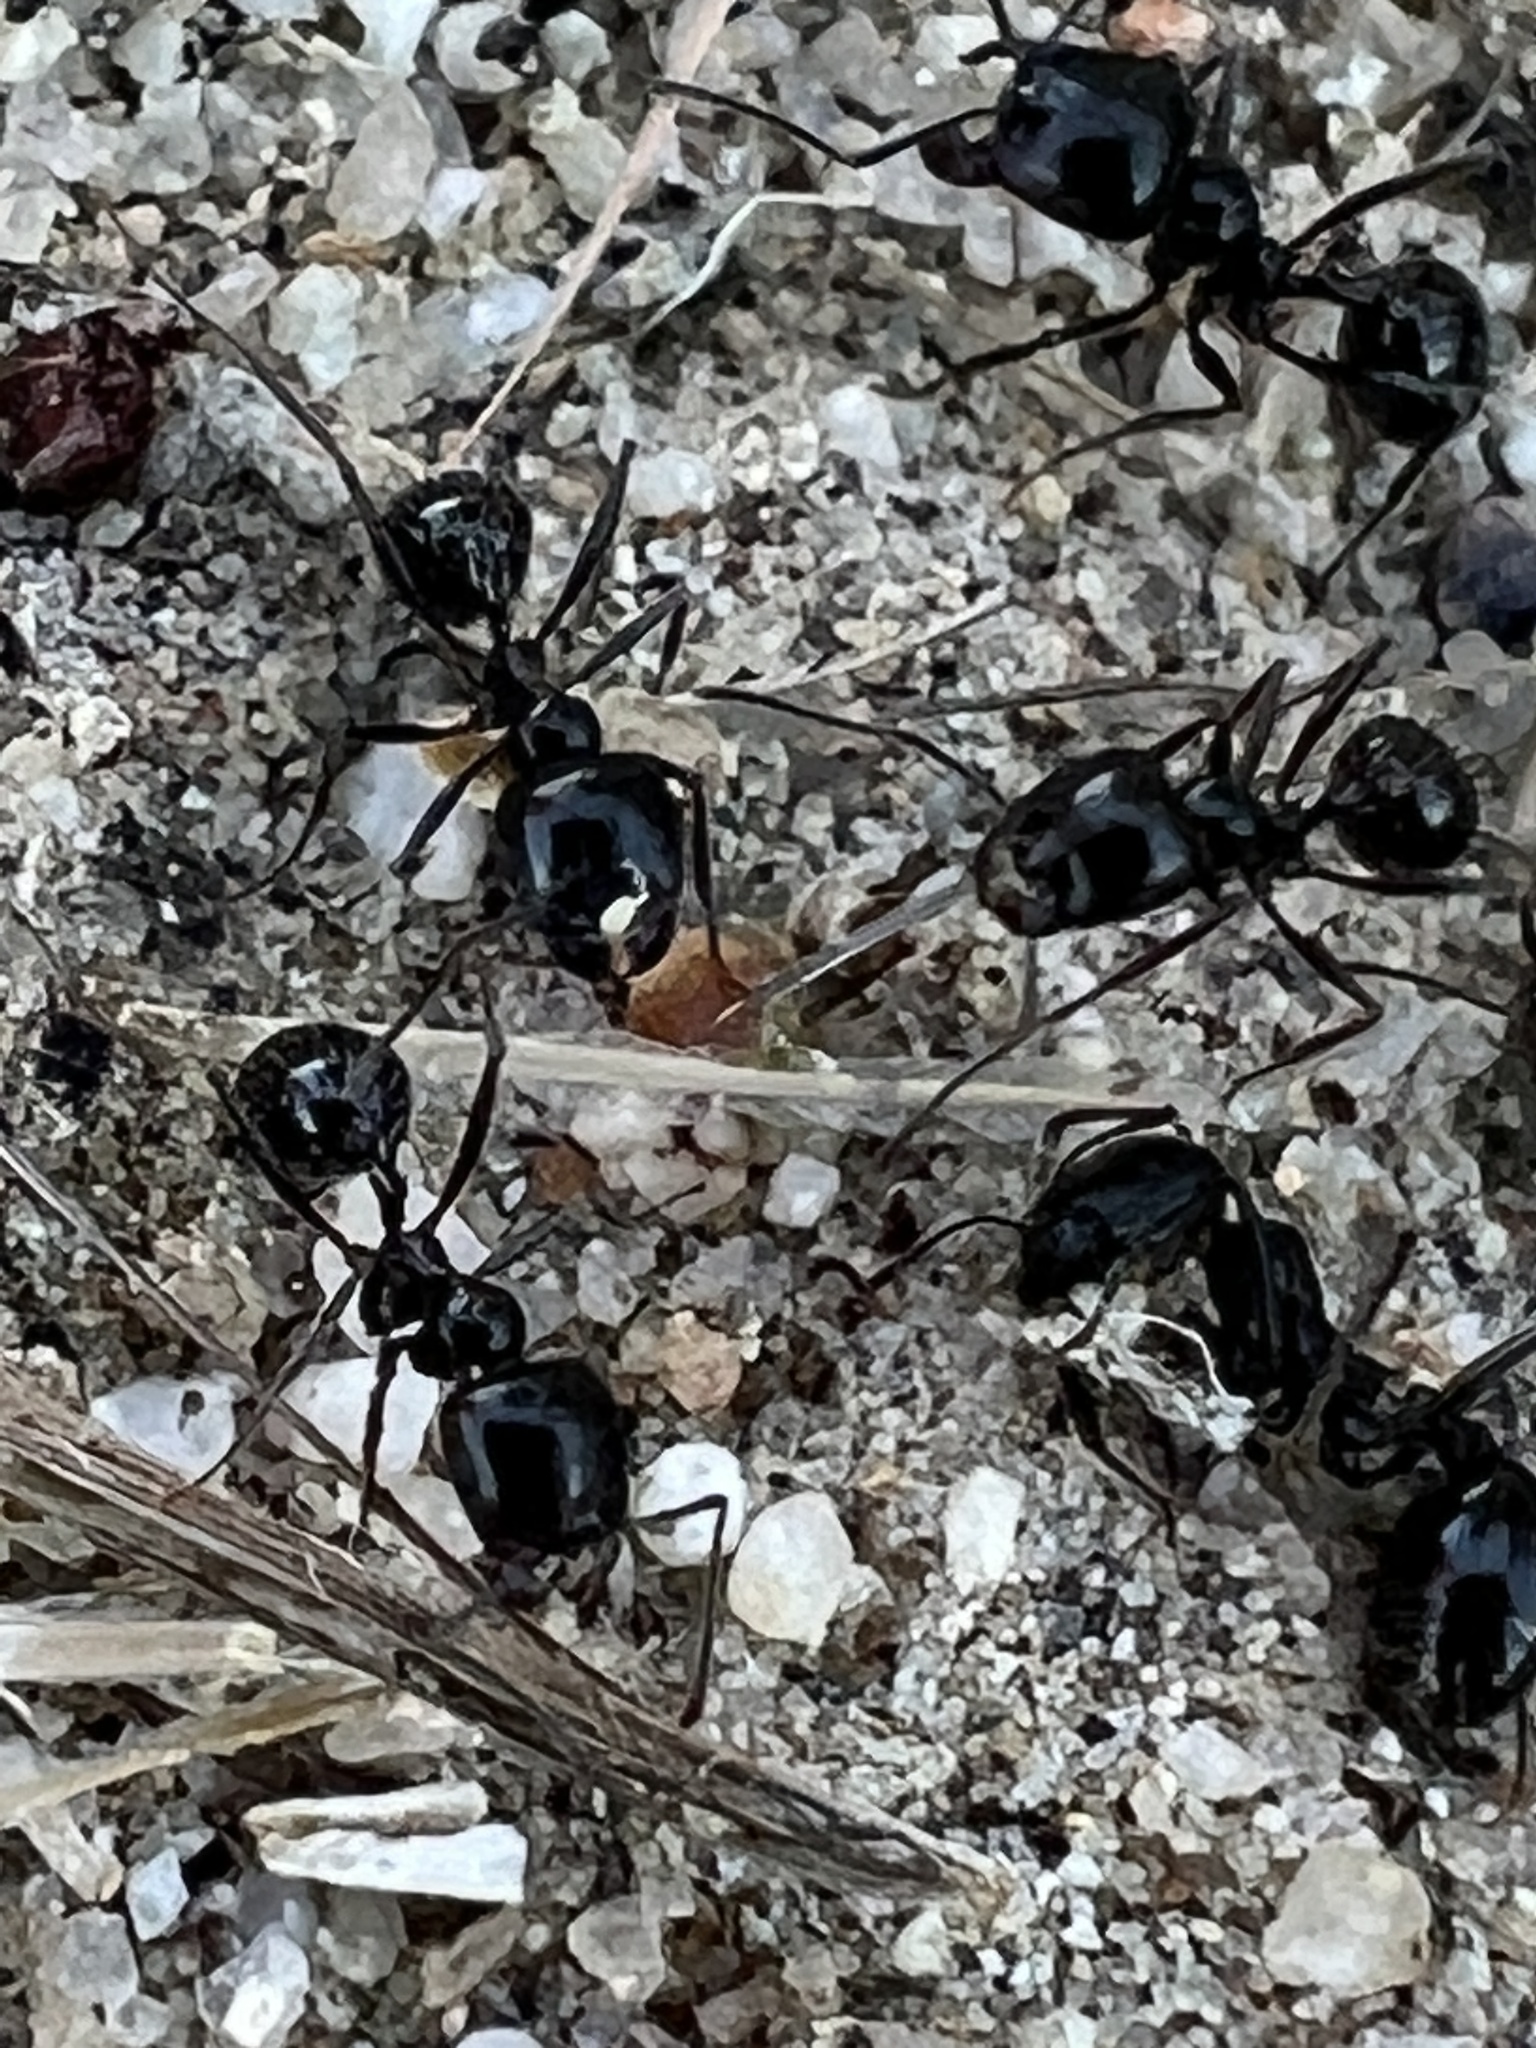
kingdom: Animalia
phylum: Arthropoda
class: Insecta
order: Hymenoptera
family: Formicidae
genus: Messor
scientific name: Messor pergandei
